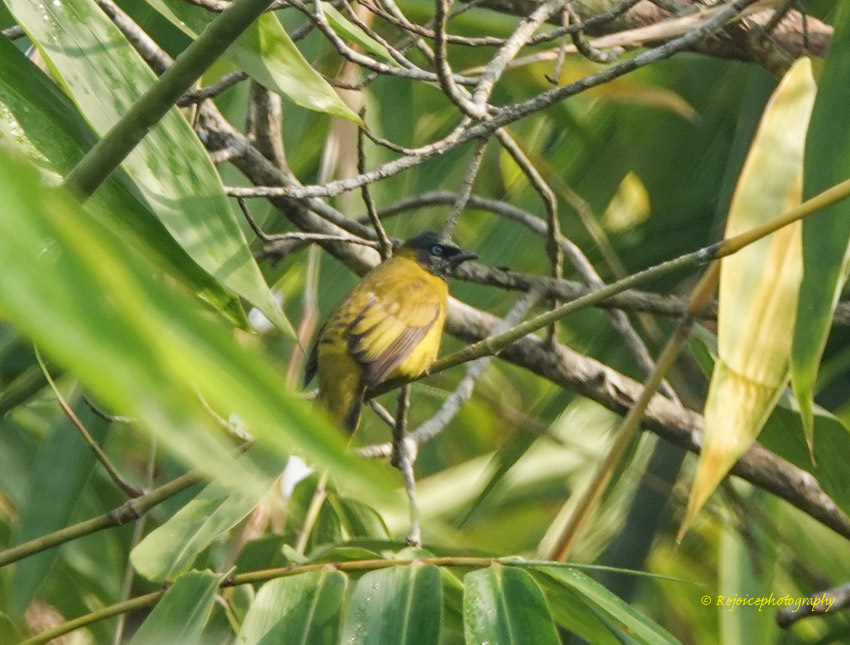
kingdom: Animalia
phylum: Chordata
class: Aves
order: Passeriformes
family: Pycnonotidae
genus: Microtarsus
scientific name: Microtarsus
